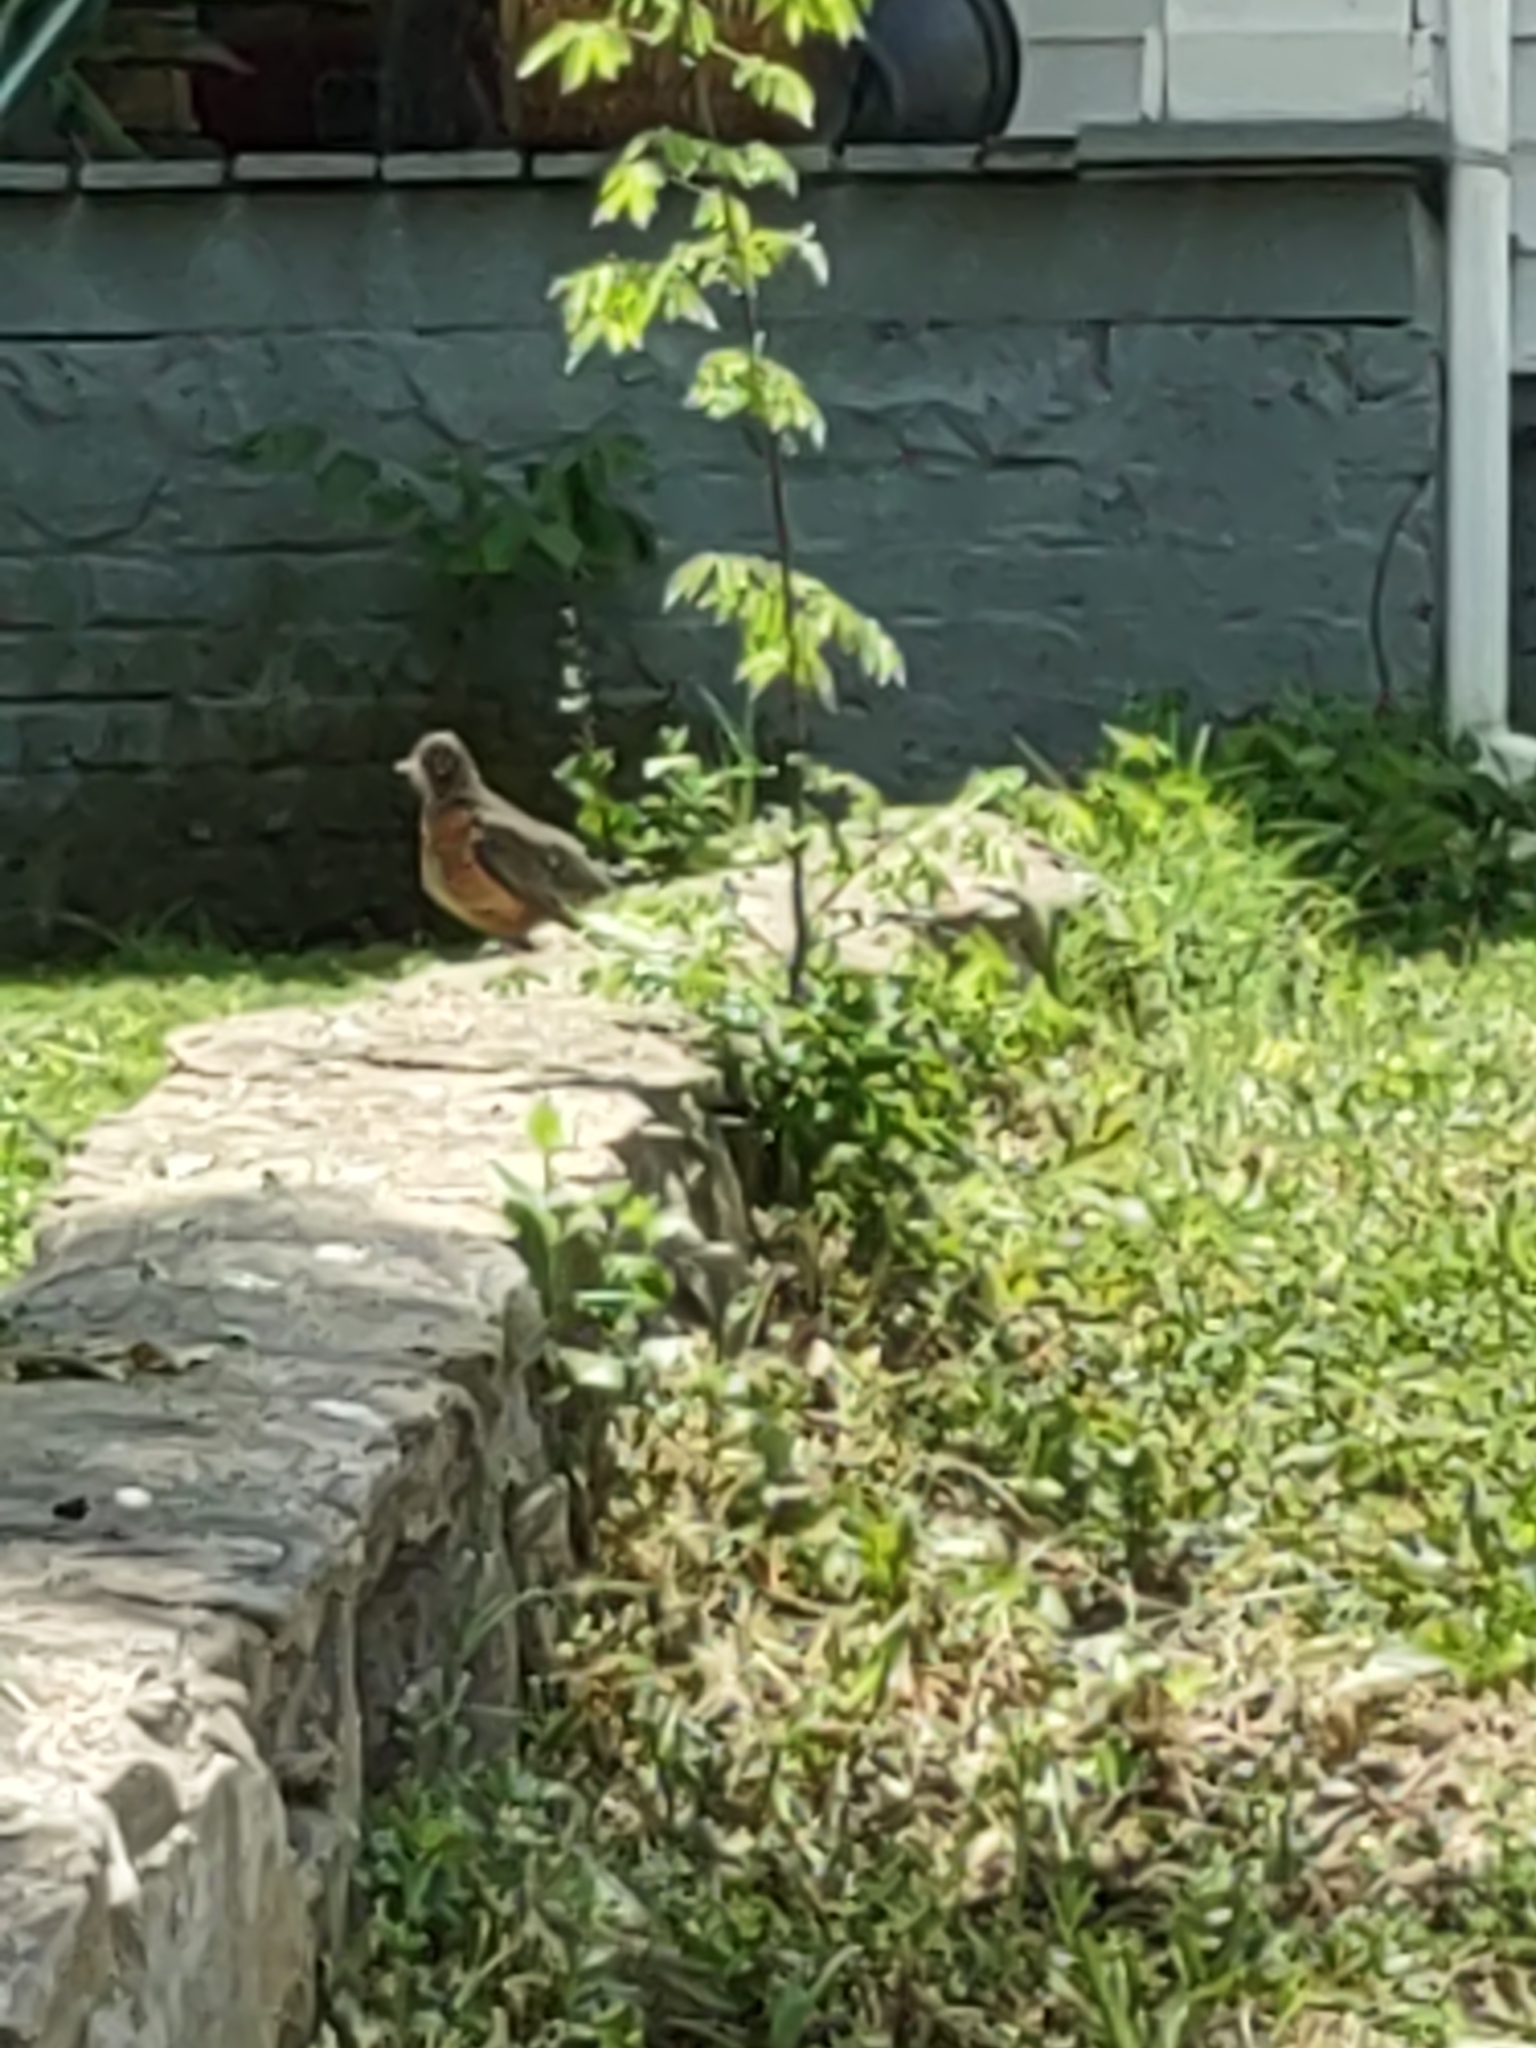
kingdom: Animalia
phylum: Chordata
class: Aves
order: Passeriformes
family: Turdidae
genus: Turdus
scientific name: Turdus migratorius
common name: American robin
